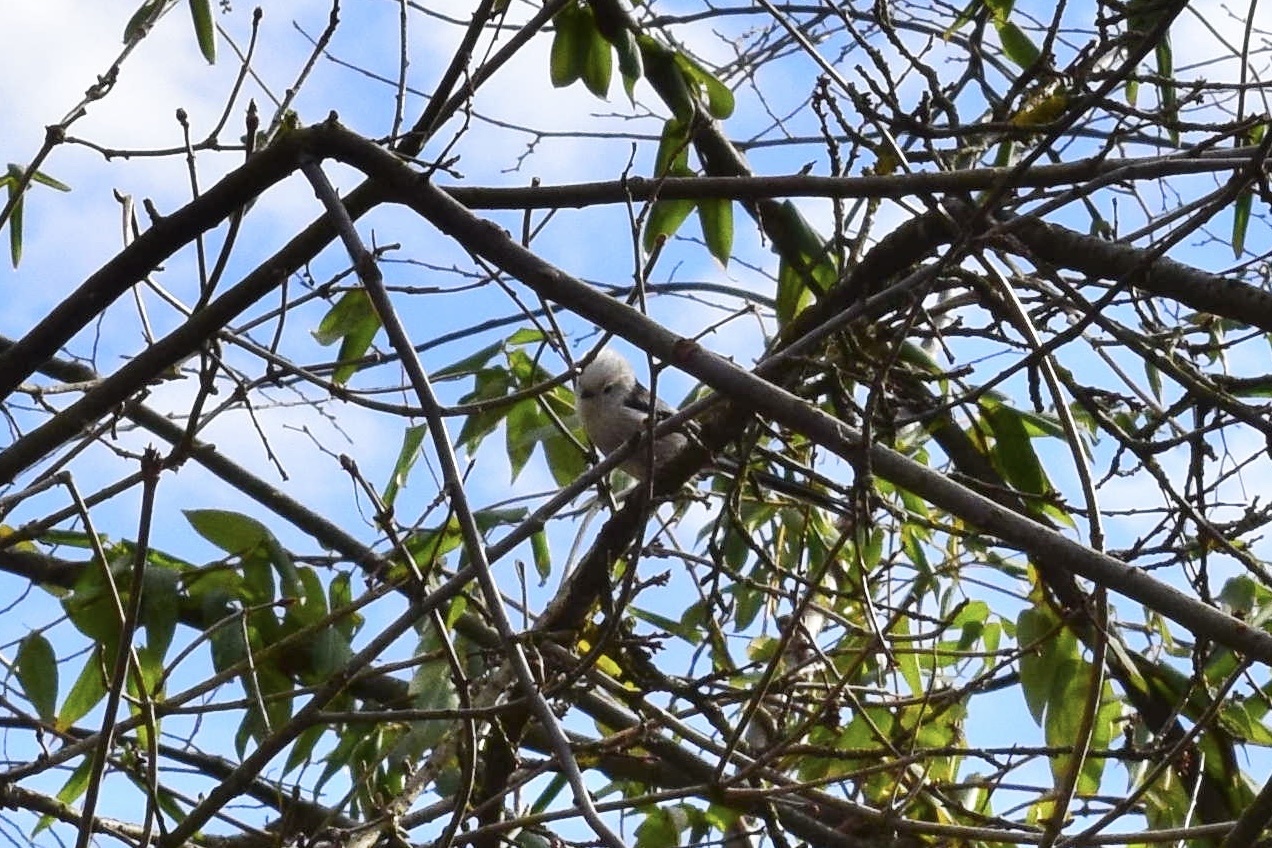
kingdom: Animalia
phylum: Chordata
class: Aves
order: Passeriformes
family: Aegithalidae
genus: Aegithalos
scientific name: Aegithalos caudatus
